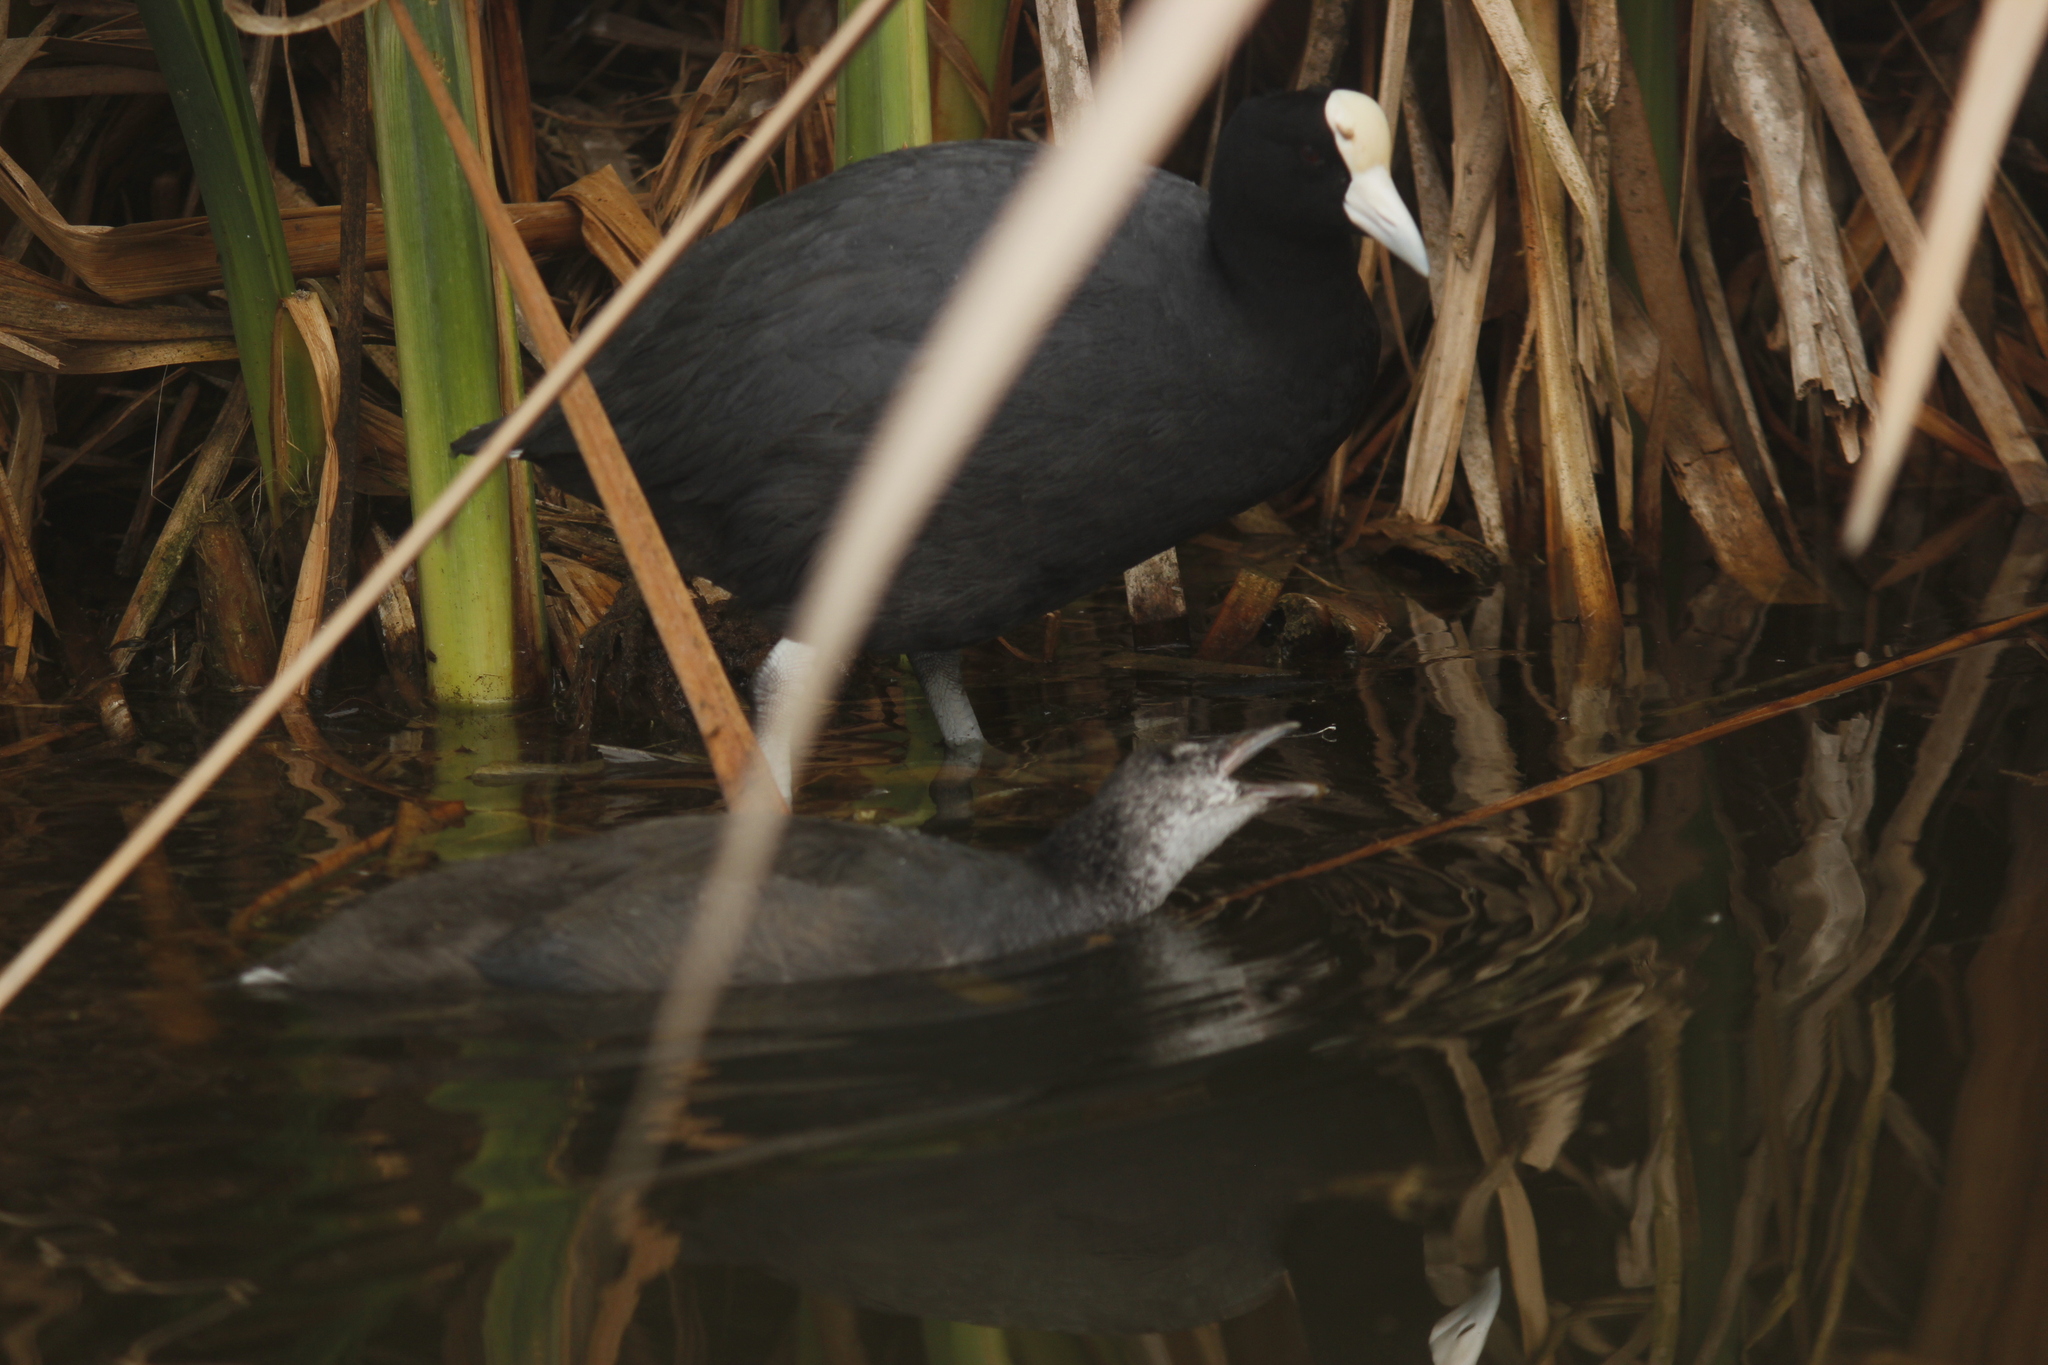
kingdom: Animalia
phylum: Chordata
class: Aves
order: Gruiformes
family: Rallidae
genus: Fulica
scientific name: Fulica ardesiaca
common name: Andean coot
